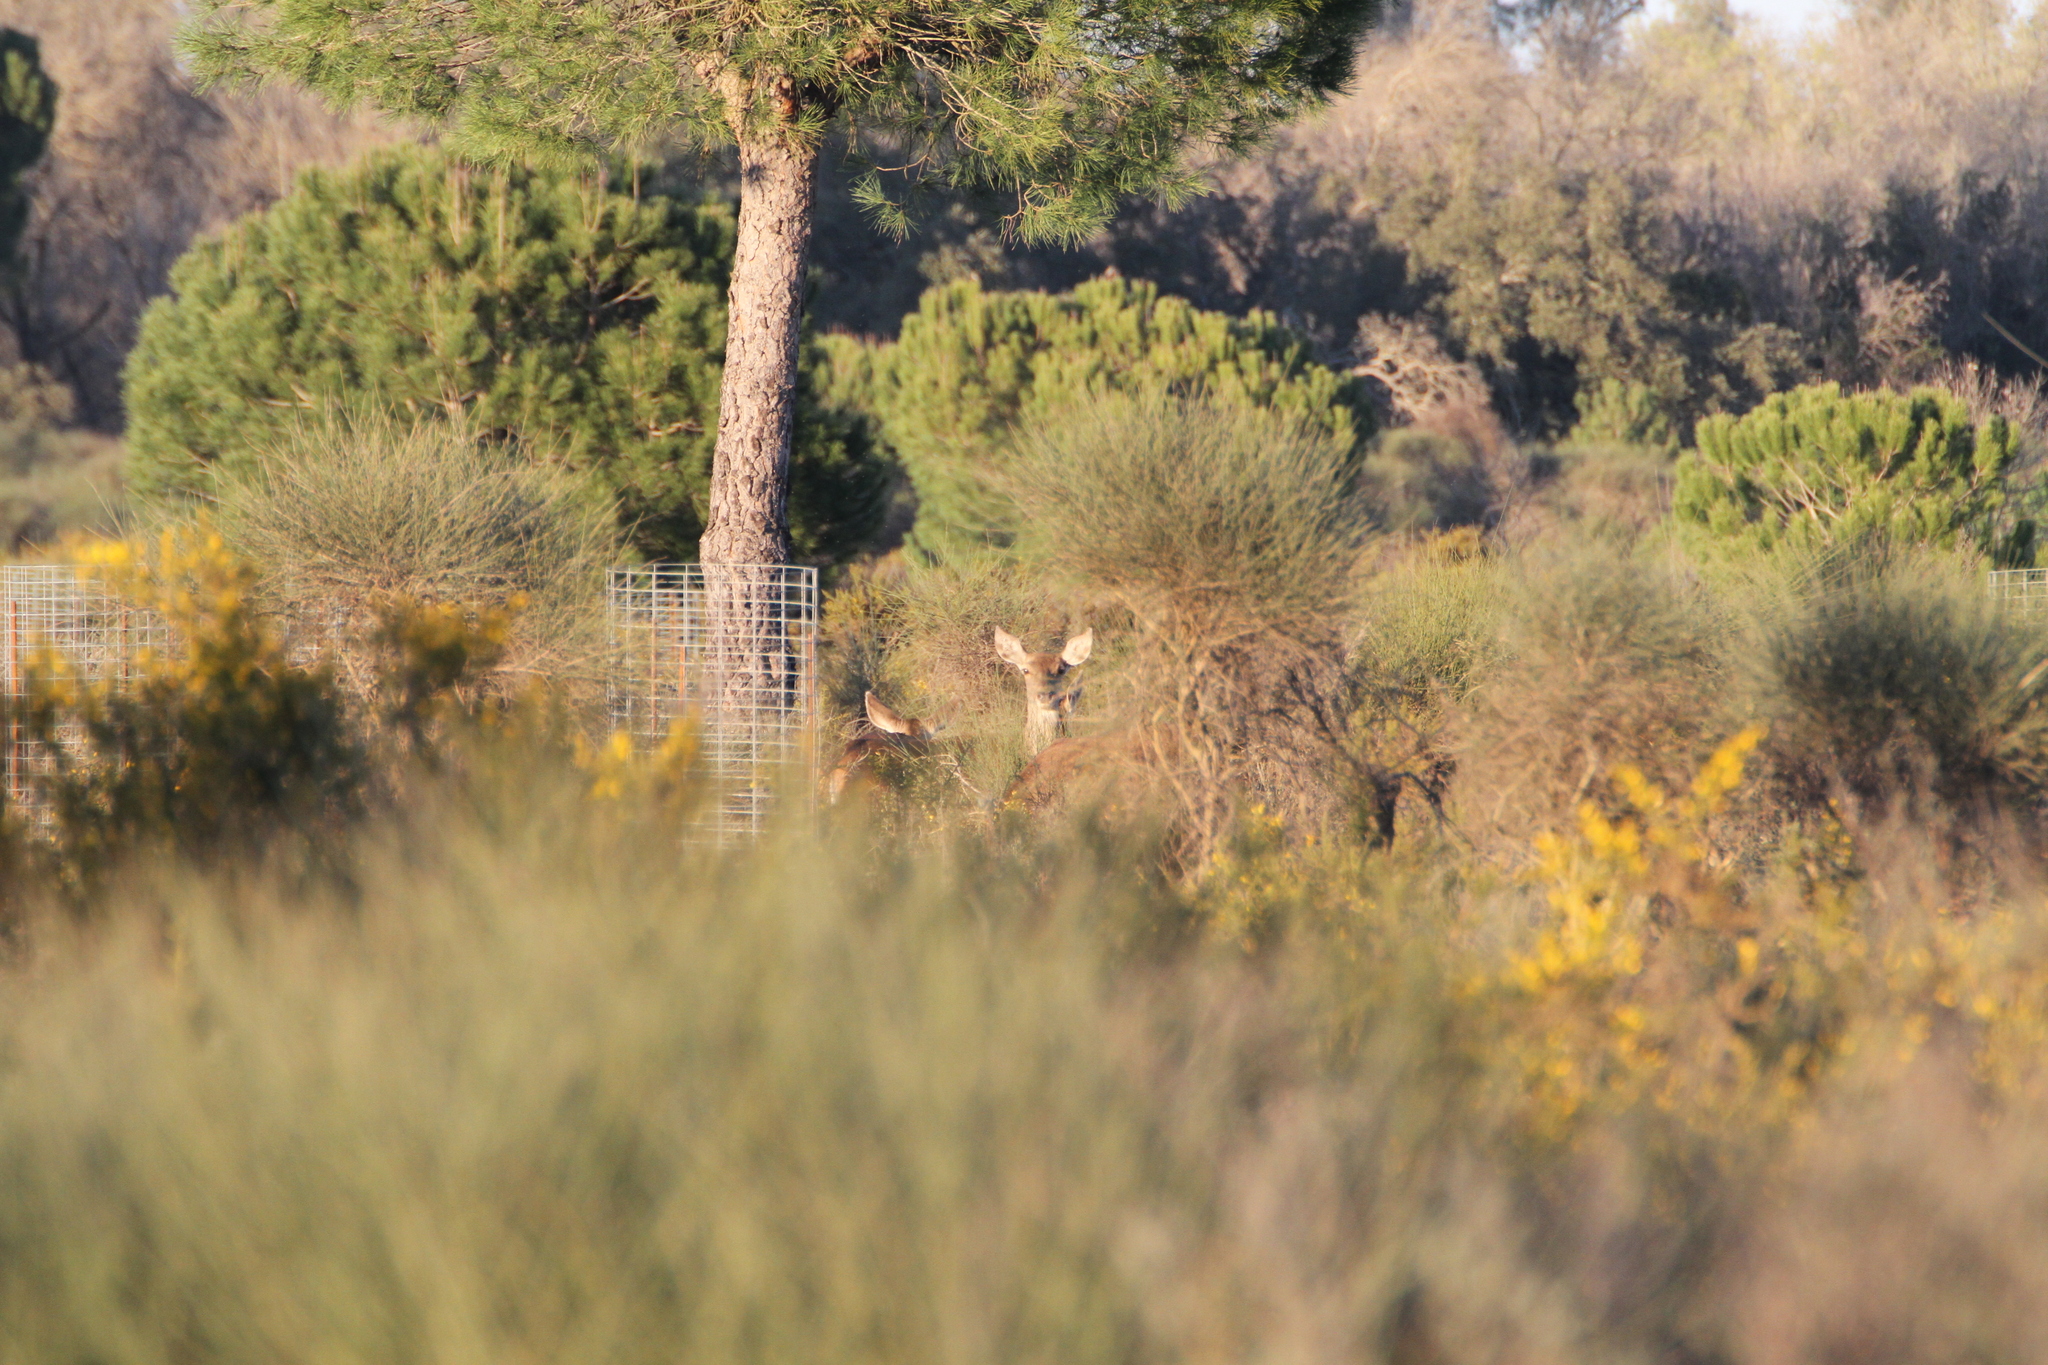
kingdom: Animalia
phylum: Chordata
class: Mammalia
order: Artiodactyla
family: Cervidae
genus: Cervus
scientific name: Cervus elaphus
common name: Red deer
